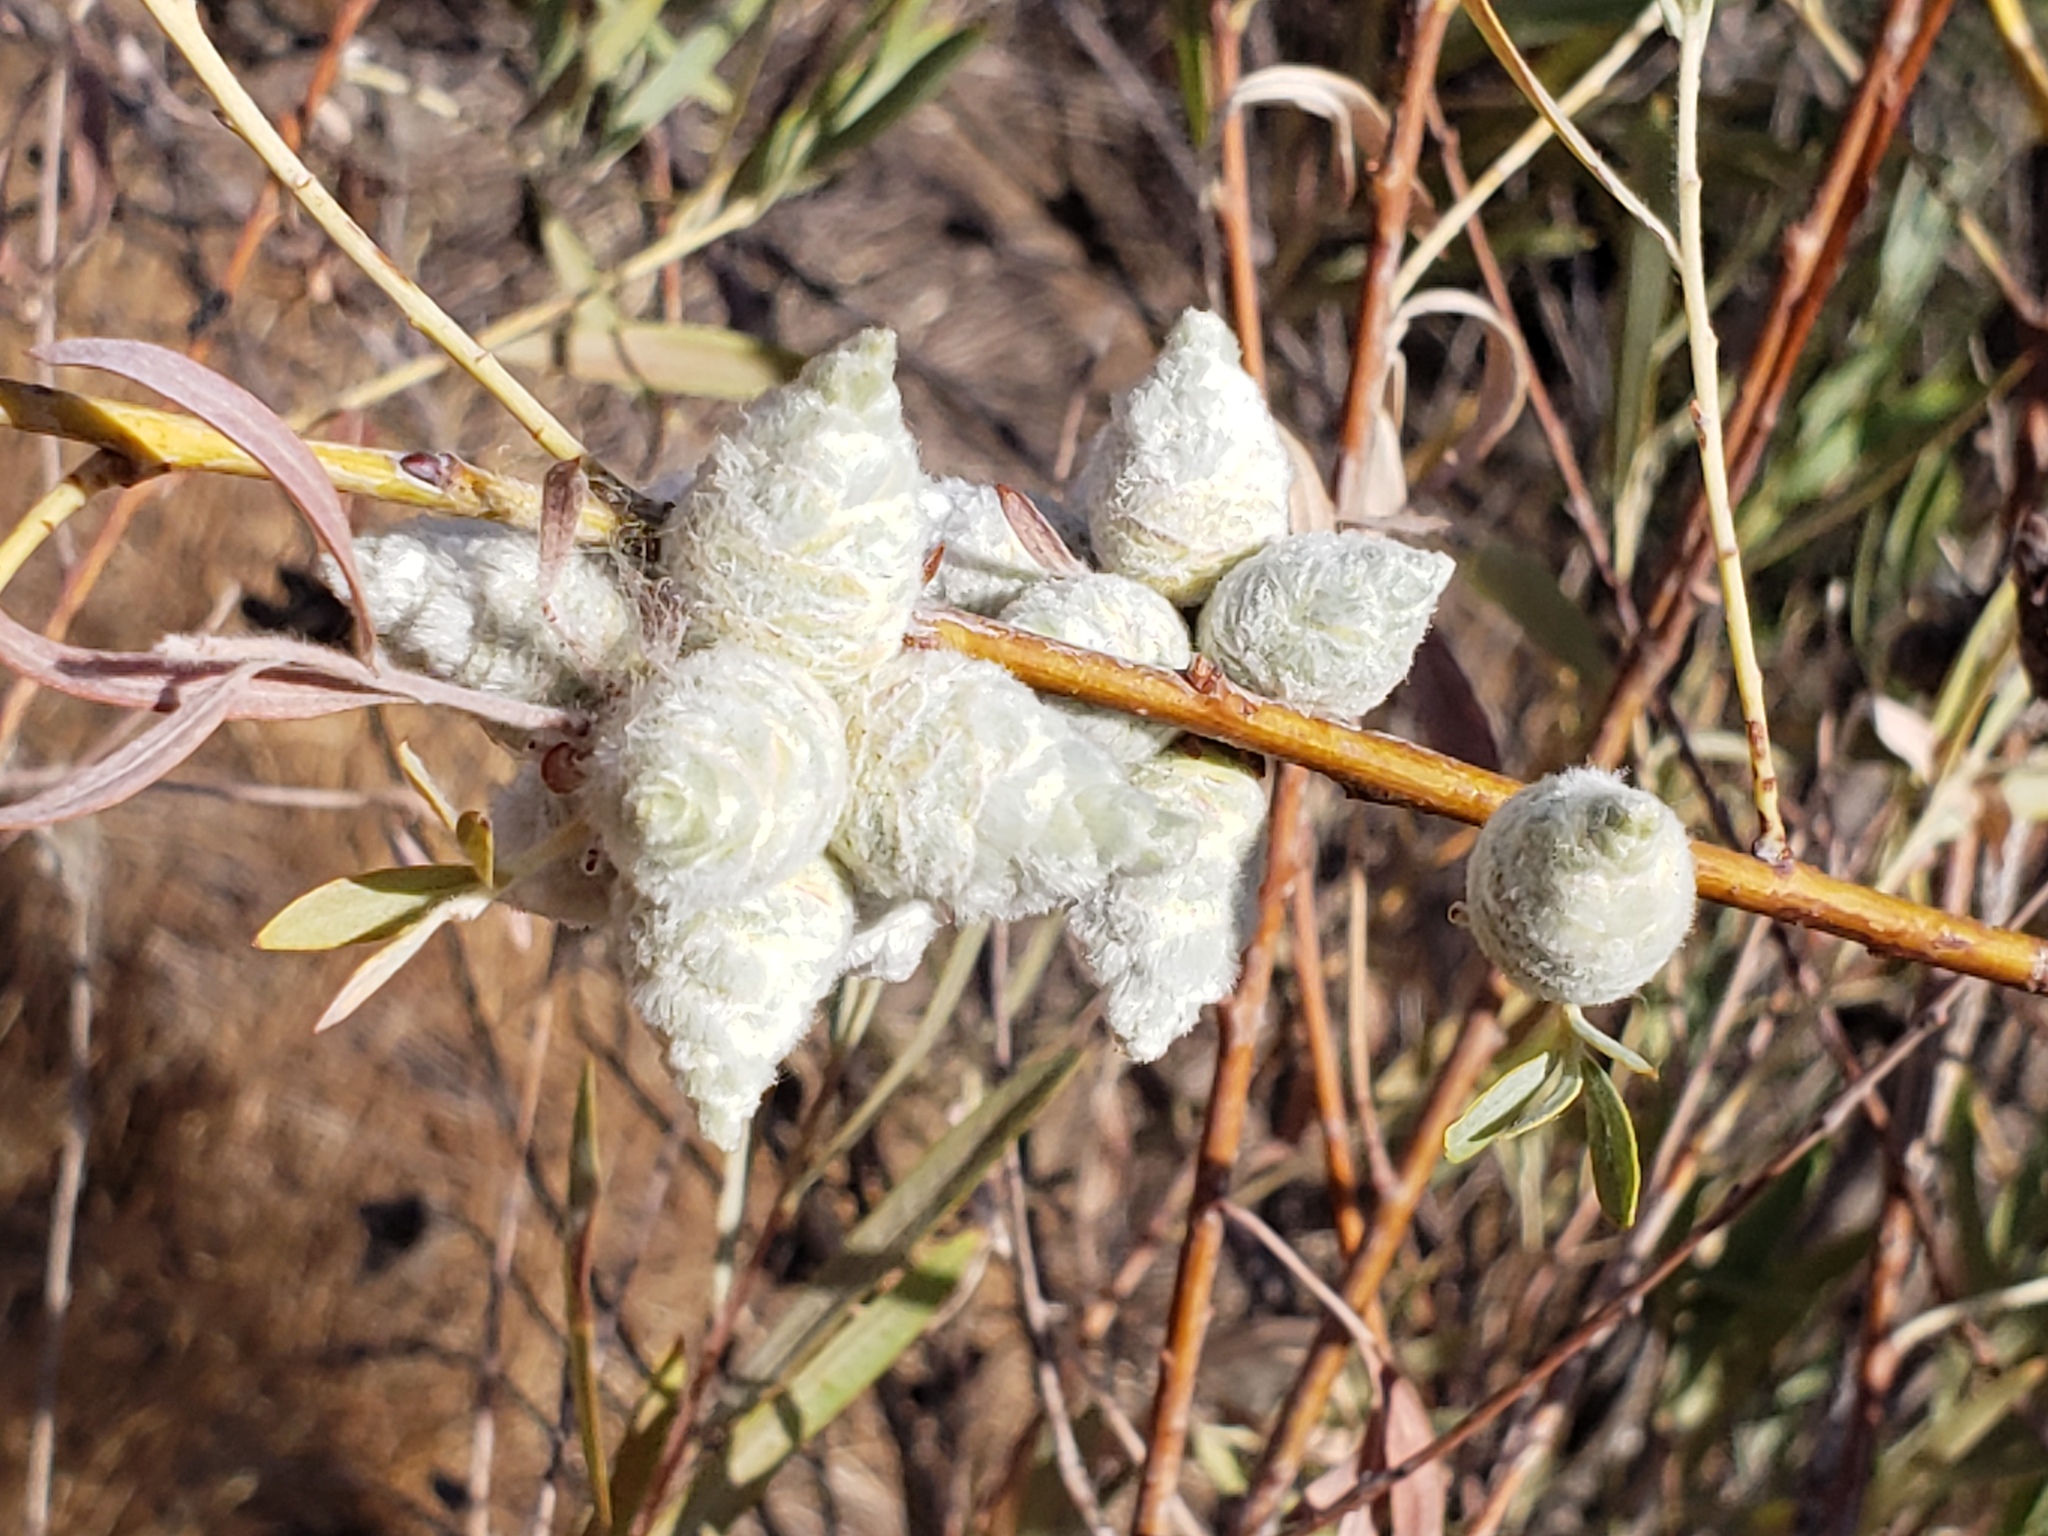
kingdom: Animalia
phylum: Arthropoda
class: Insecta
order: Diptera
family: Cecidomyiidae
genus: Rabdophaga
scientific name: Rabdophaga strobiloides
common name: Willow pinecone gall midge
